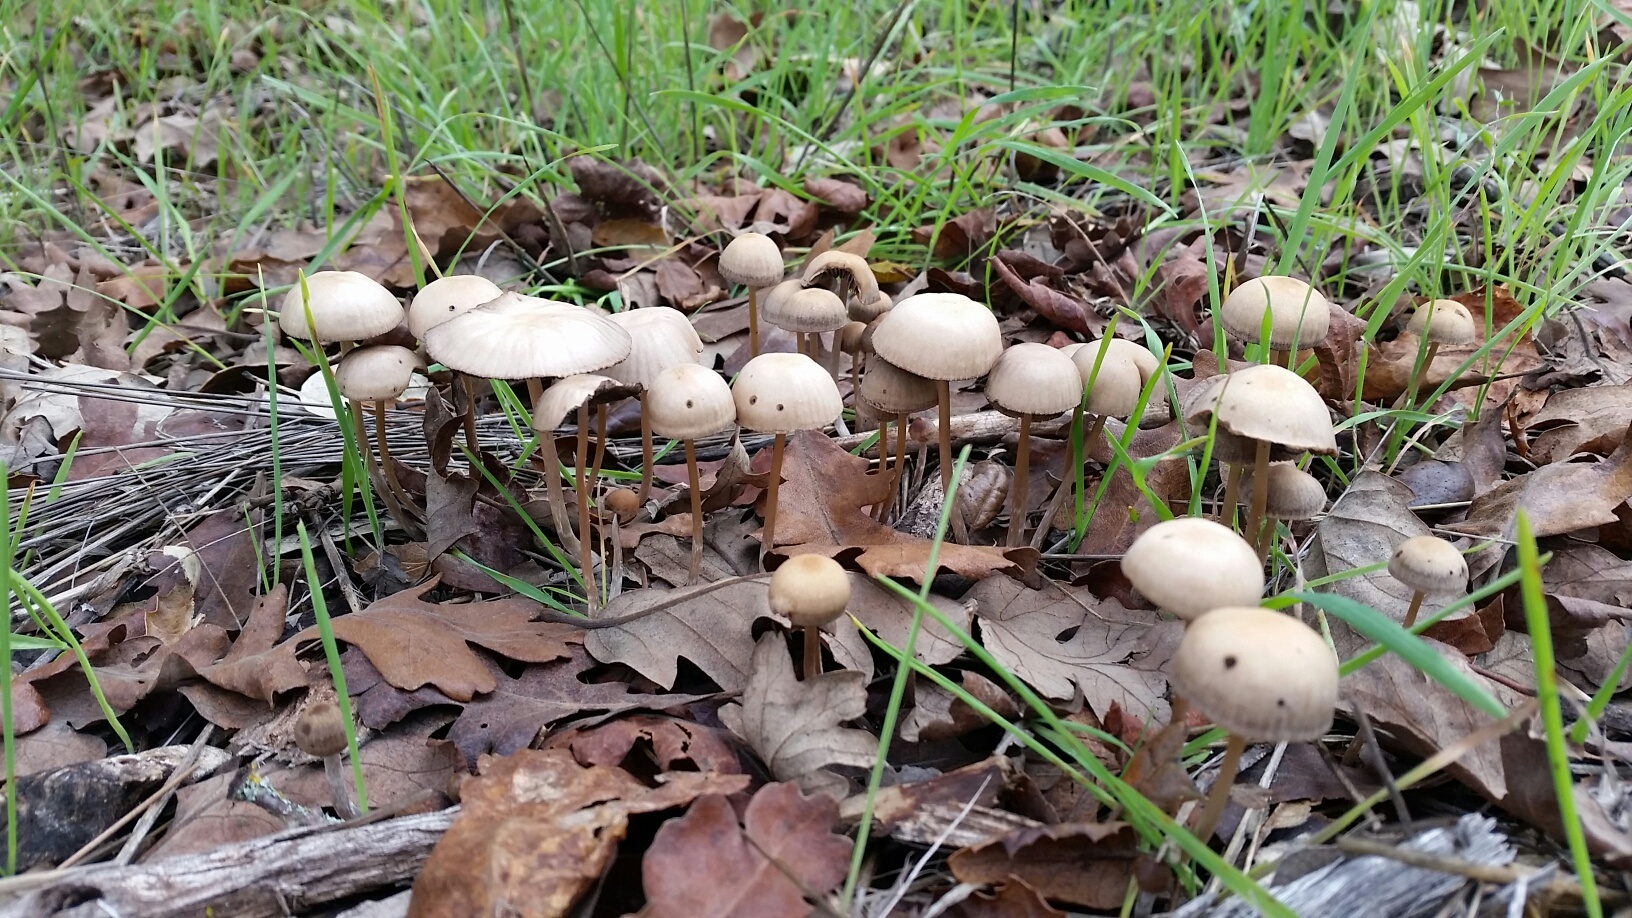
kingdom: Fungi
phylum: Basidiomycota
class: Agaricomycetes
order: Agaricales
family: Psathyrellaceae
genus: Psathyrella
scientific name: Psathyrella corrugis
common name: Red edge brittlestem
